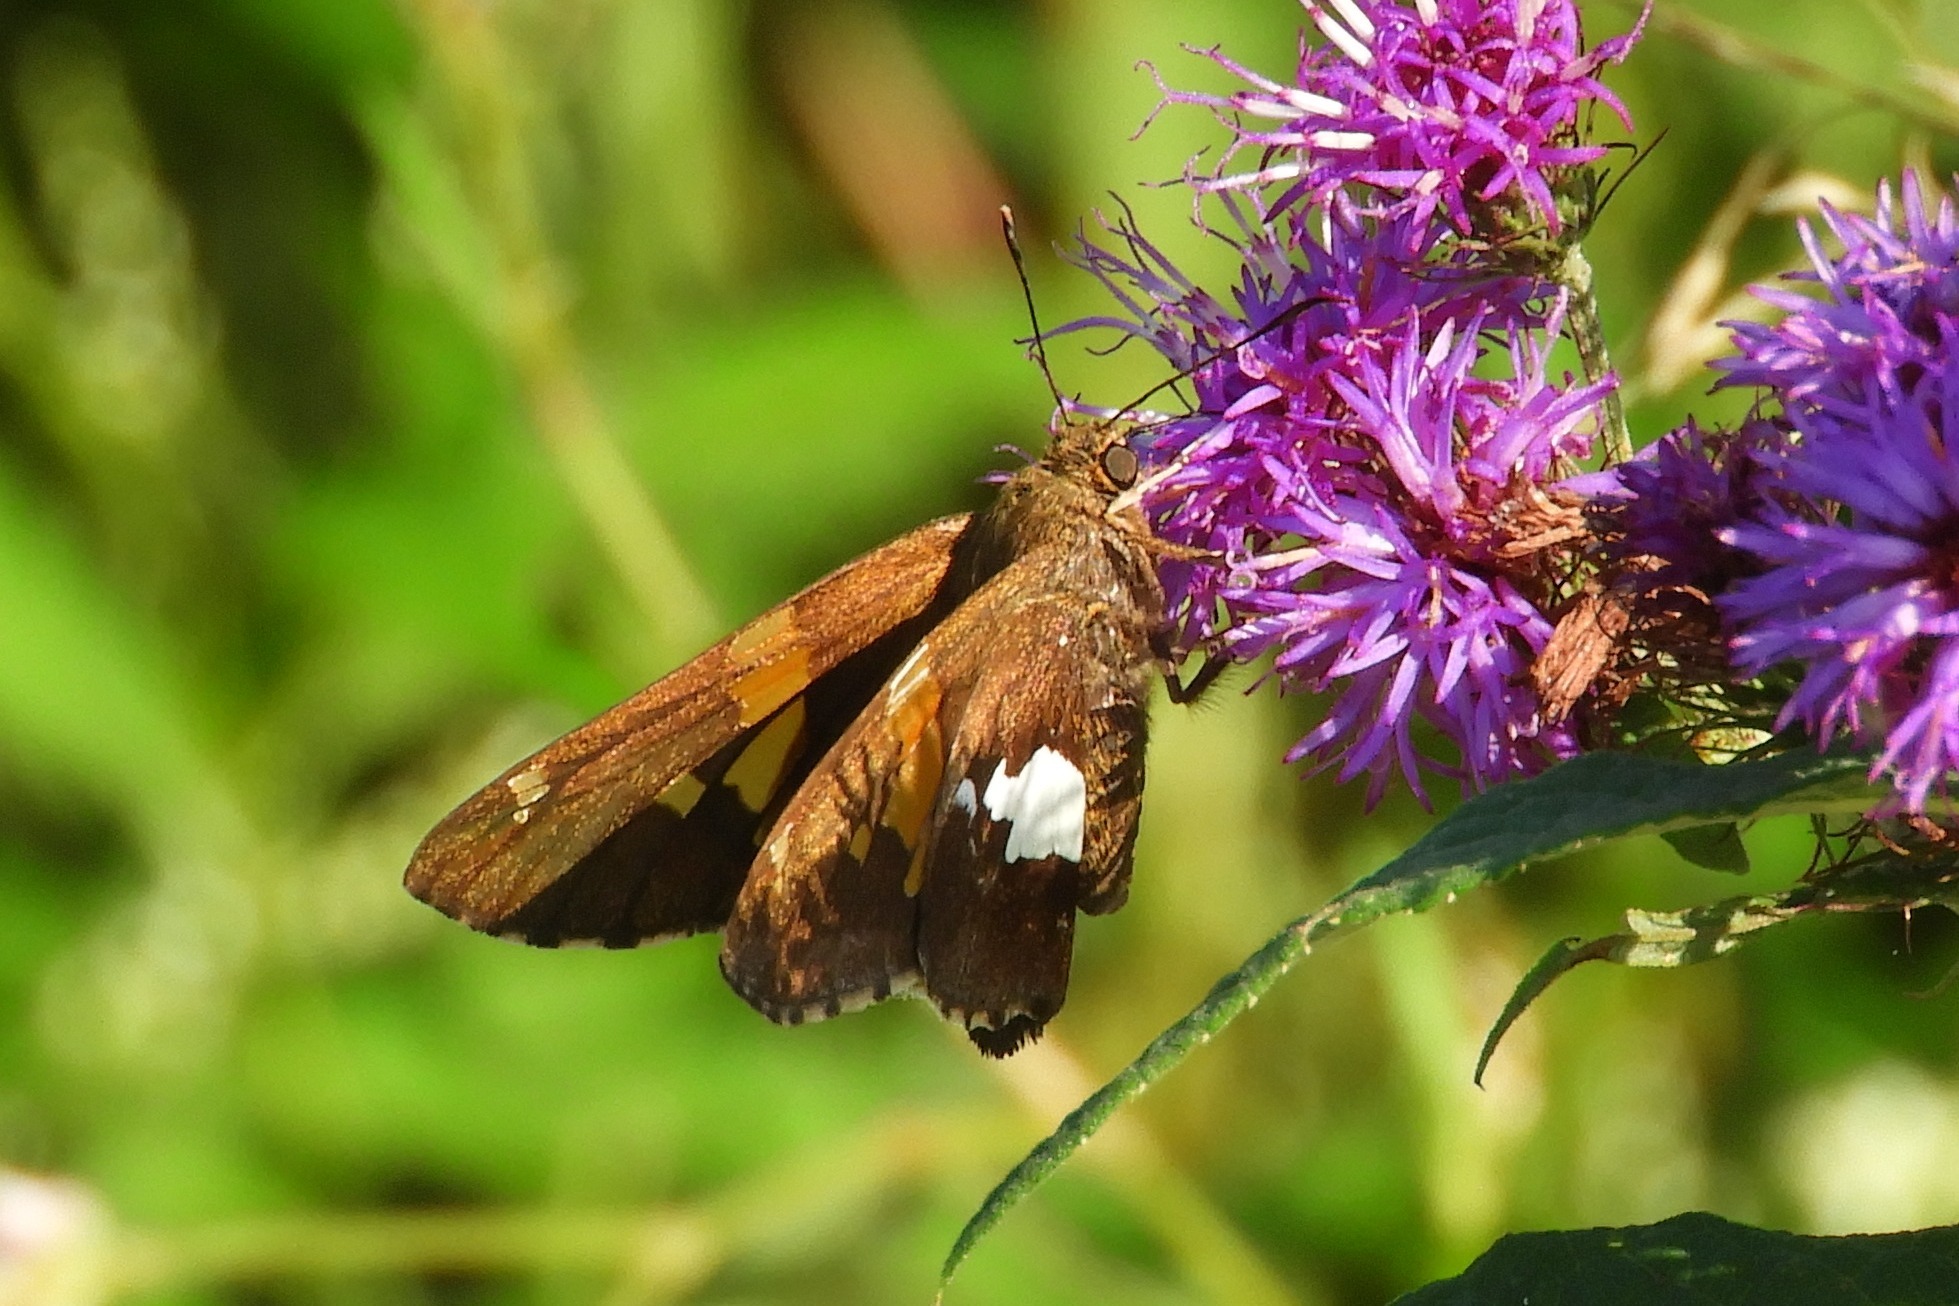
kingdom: Animalia
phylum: Arthropoda
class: Insecta
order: Lepidoptera
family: Hesperiidae
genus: Epargyreus
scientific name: Epargyreus clarus
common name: Silver-spotted skipper
